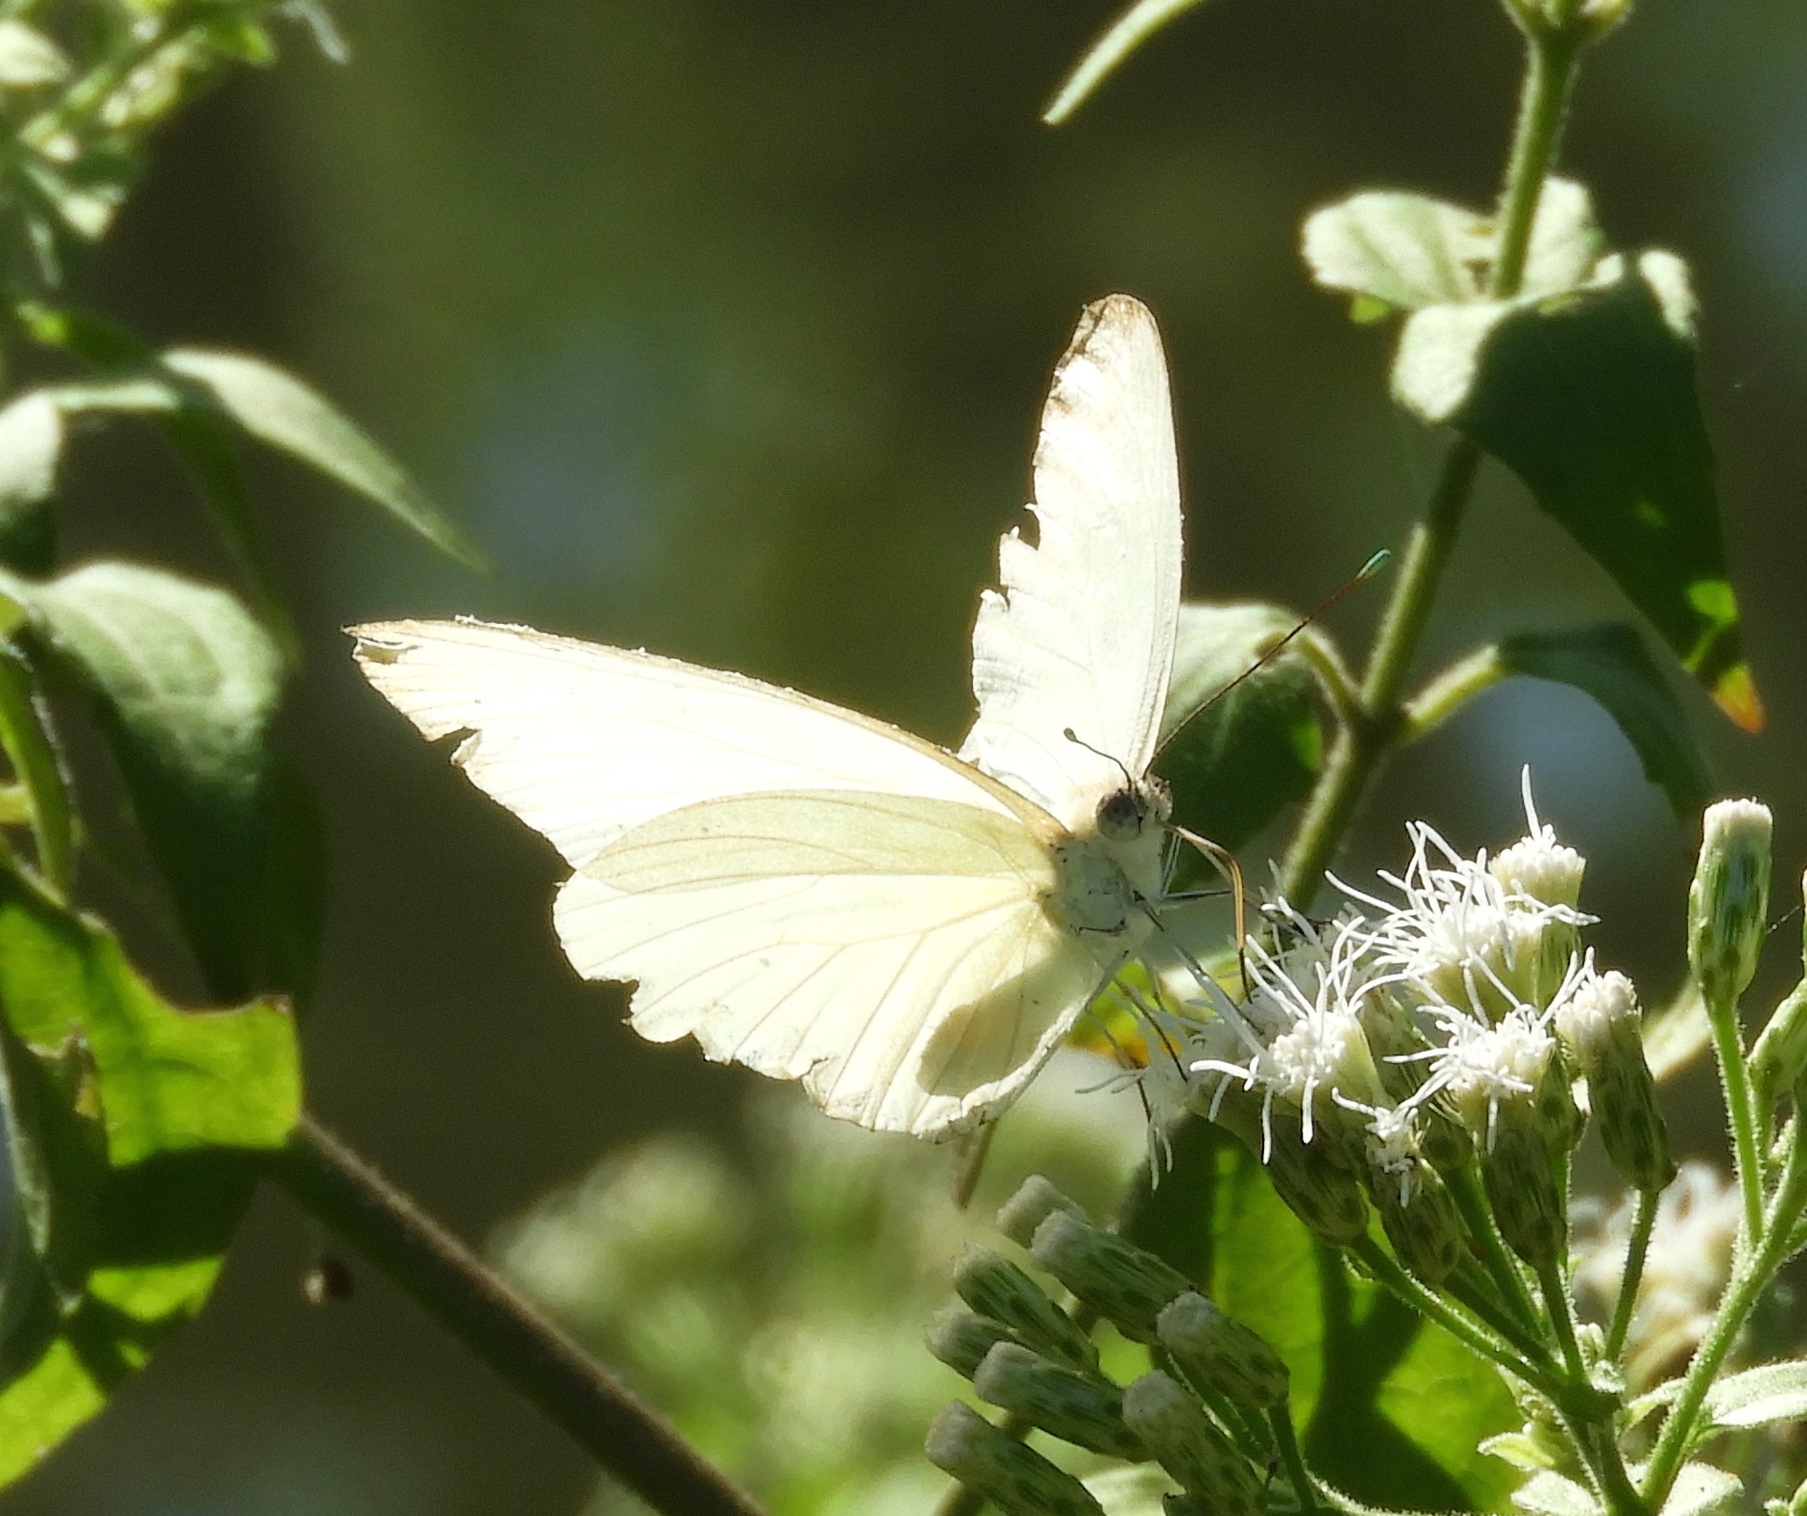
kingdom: Animalia
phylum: Arthropoda
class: Insecta
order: Lepidoptera
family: Pieridae
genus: Ascia
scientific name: Ascia monuste
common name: Great southern white
